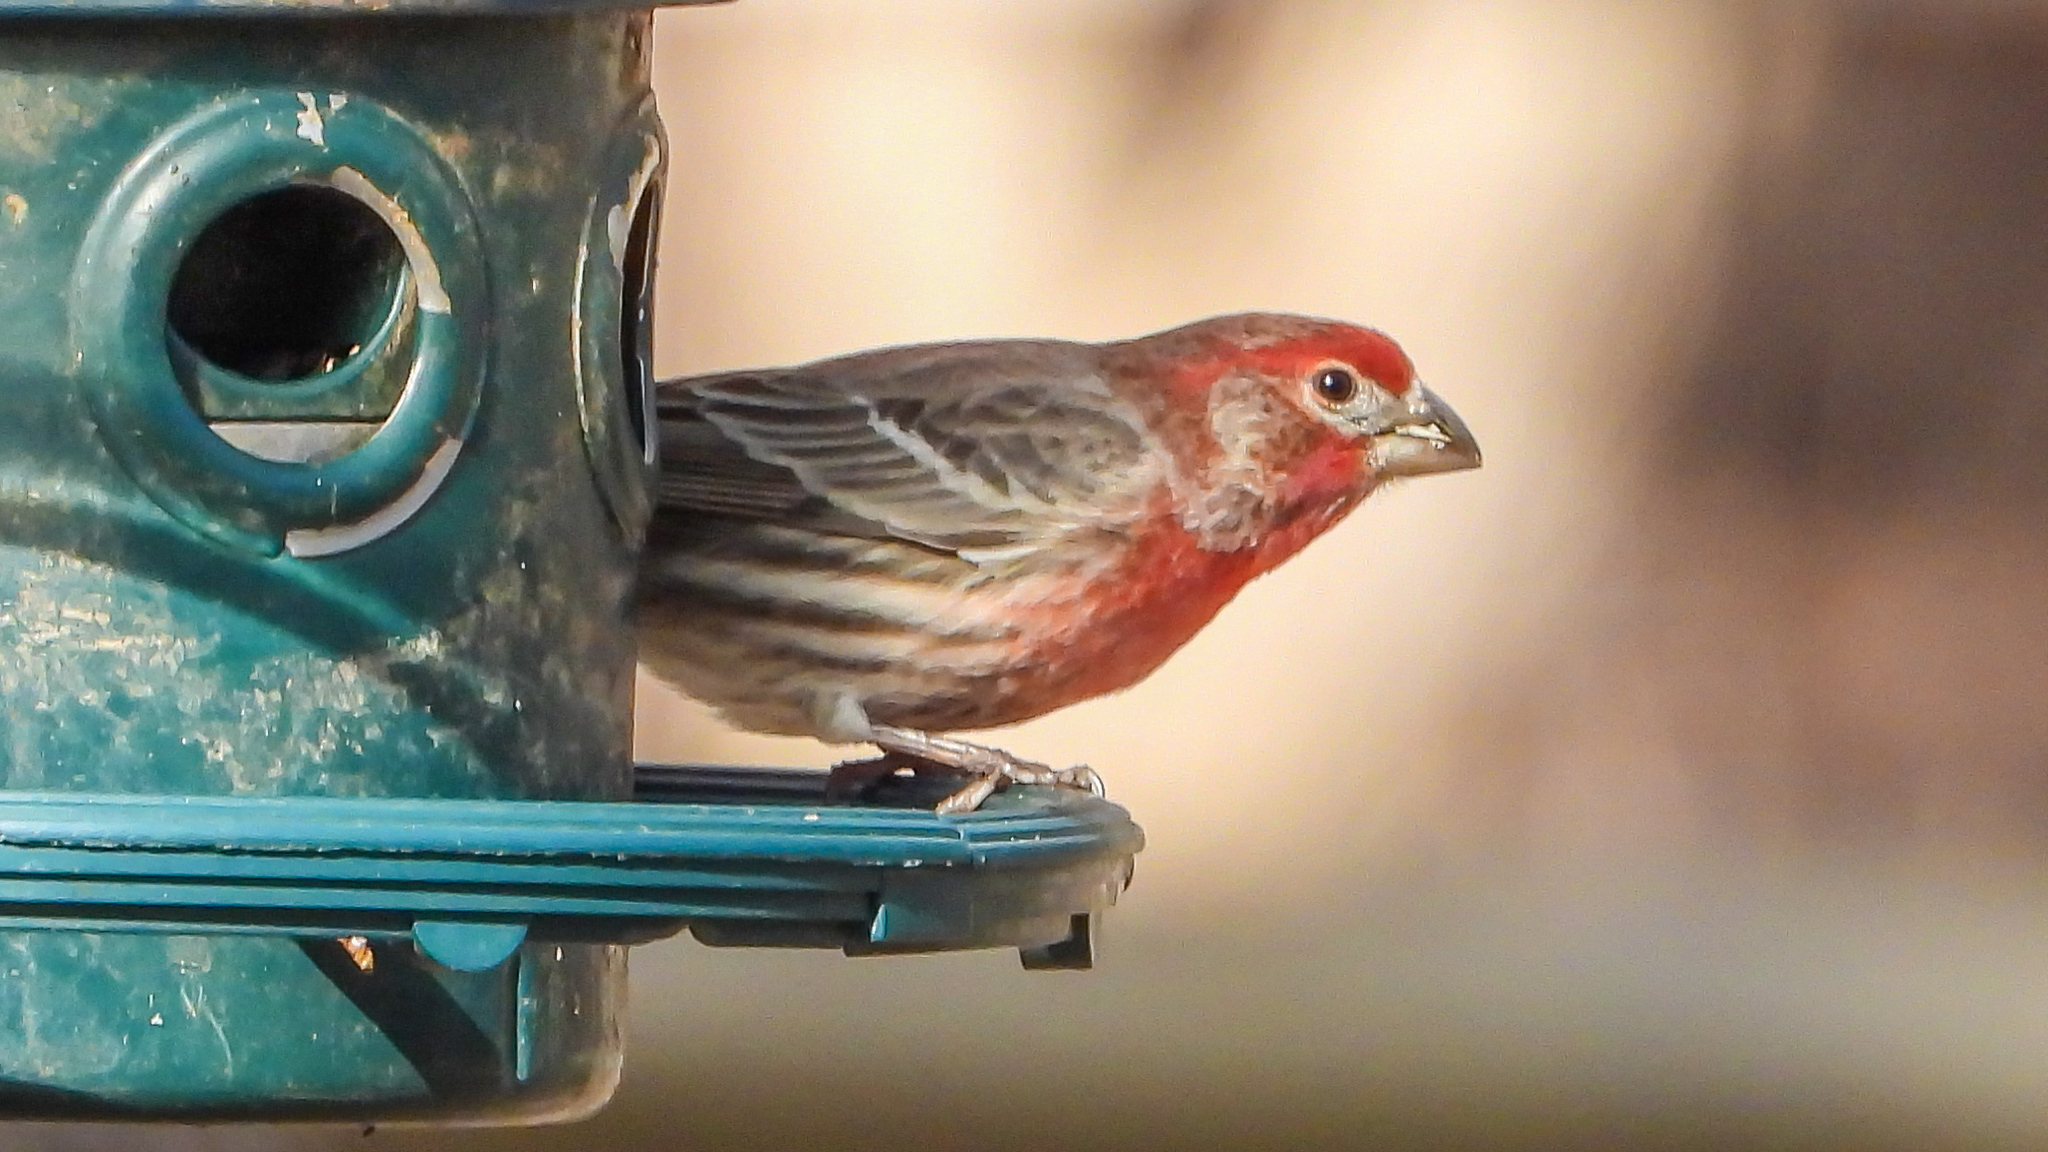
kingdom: Animalia
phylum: Chordata
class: Aves
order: Passeriformes
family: Fringillidae
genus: Haemorhous
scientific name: Haemorhous mexicanus
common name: House finch
